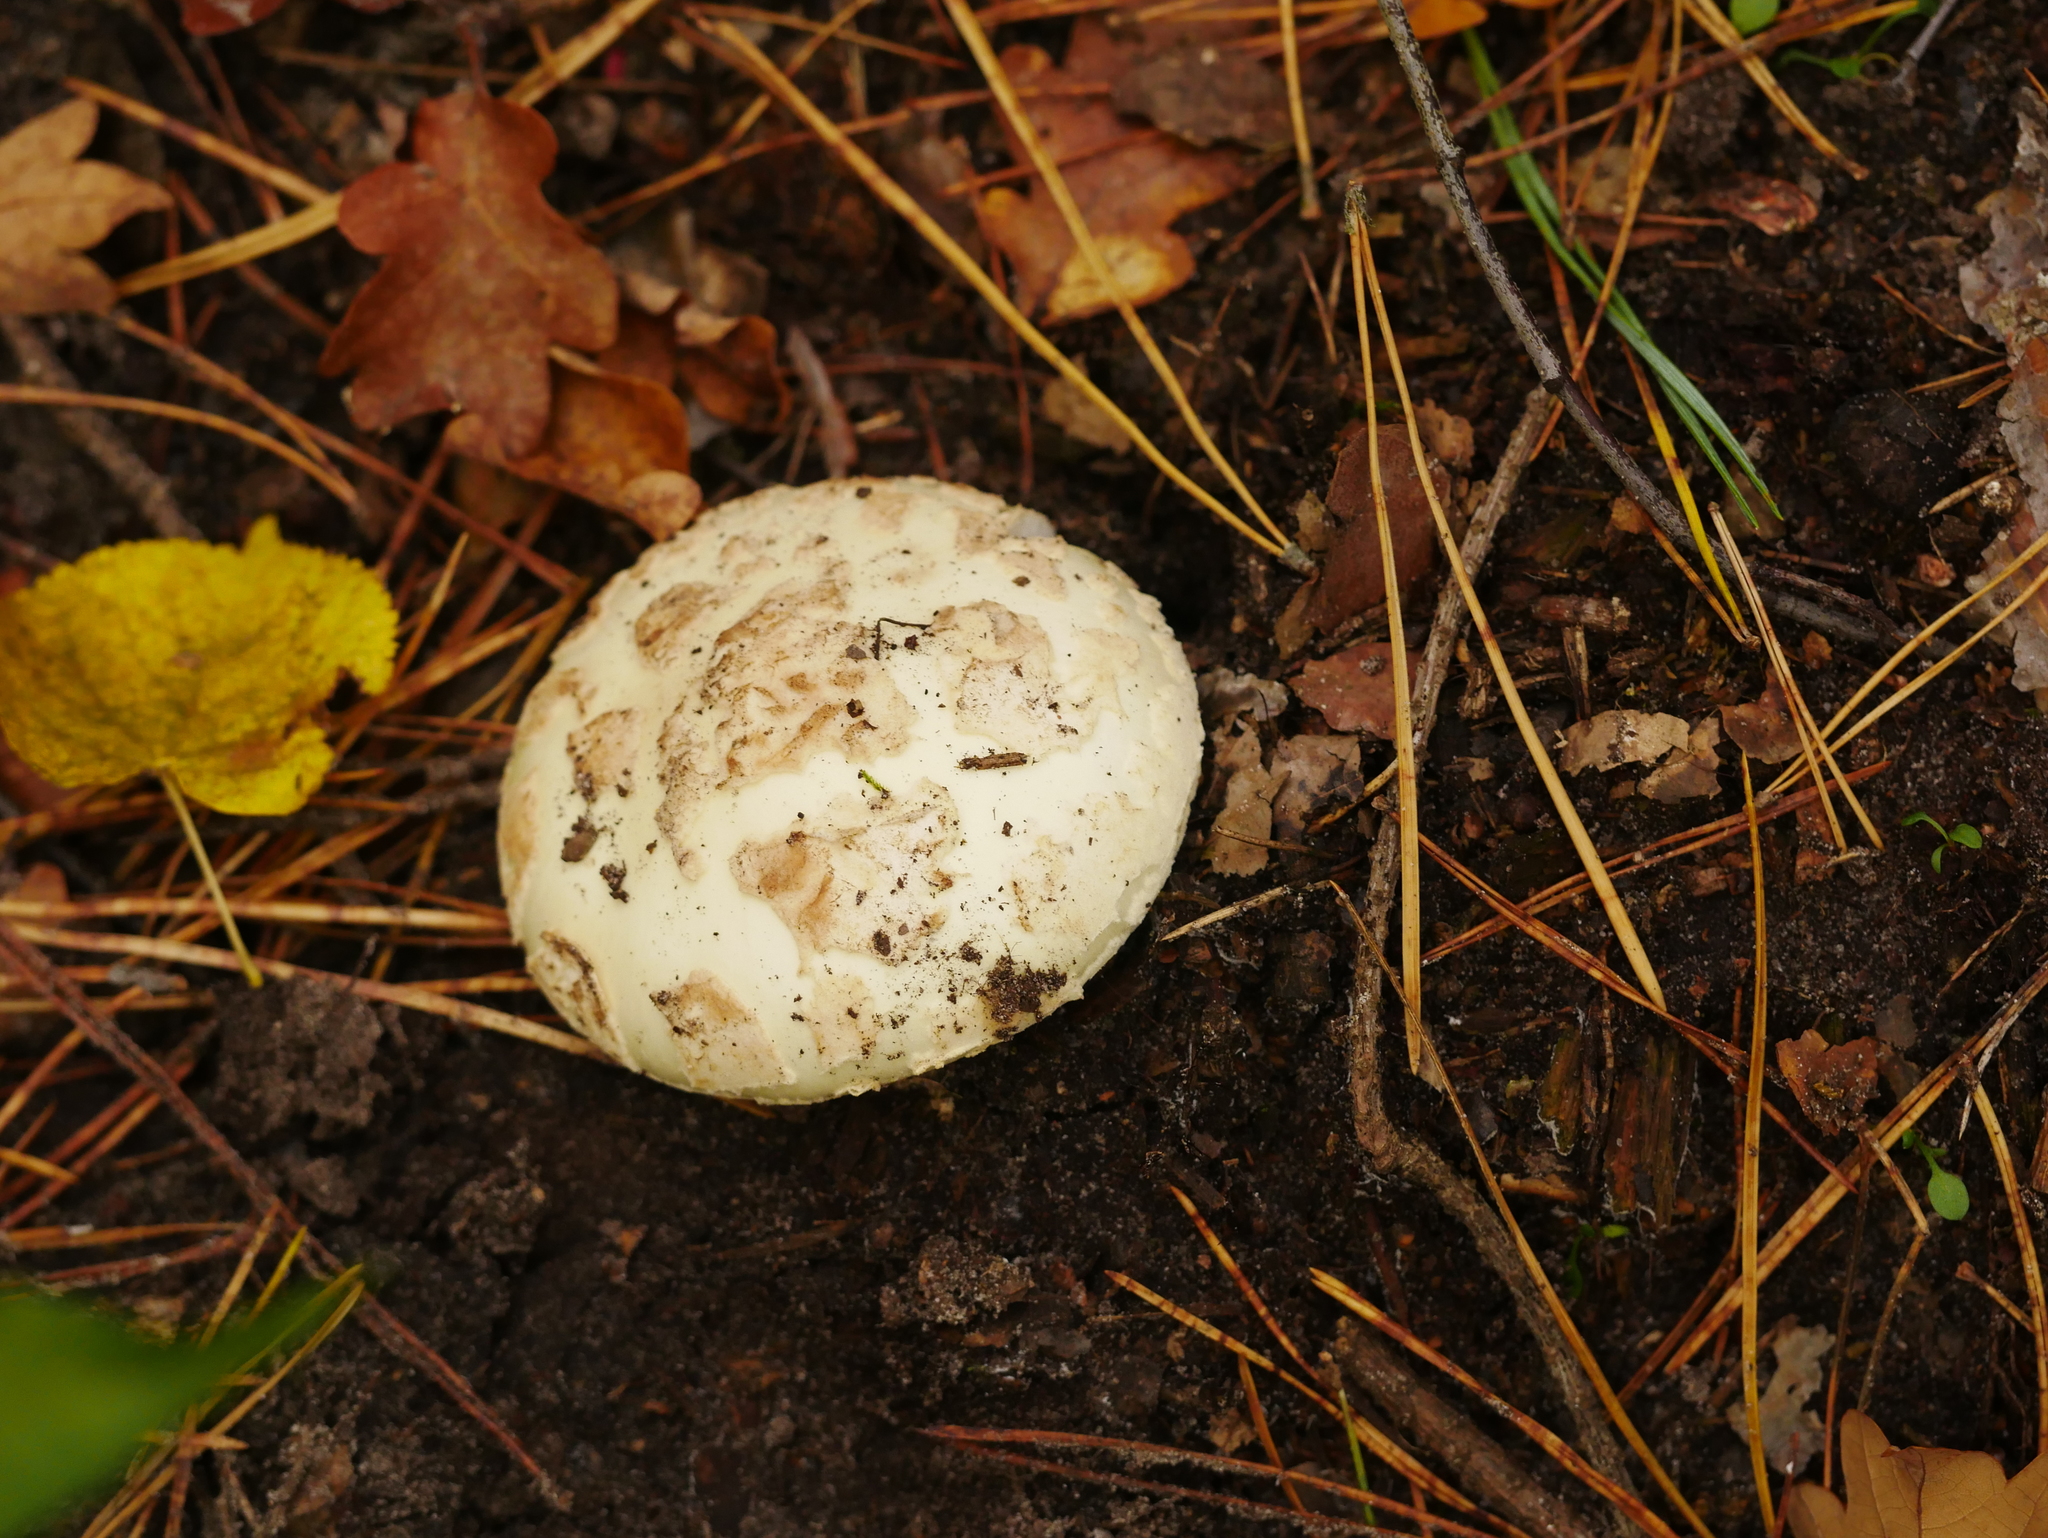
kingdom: Fungi
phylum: Basidiomycota
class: Agaricomycetes
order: Agaricales
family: Amanitaceae
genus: Amanita
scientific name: Amanita citrina
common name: False death-cap
